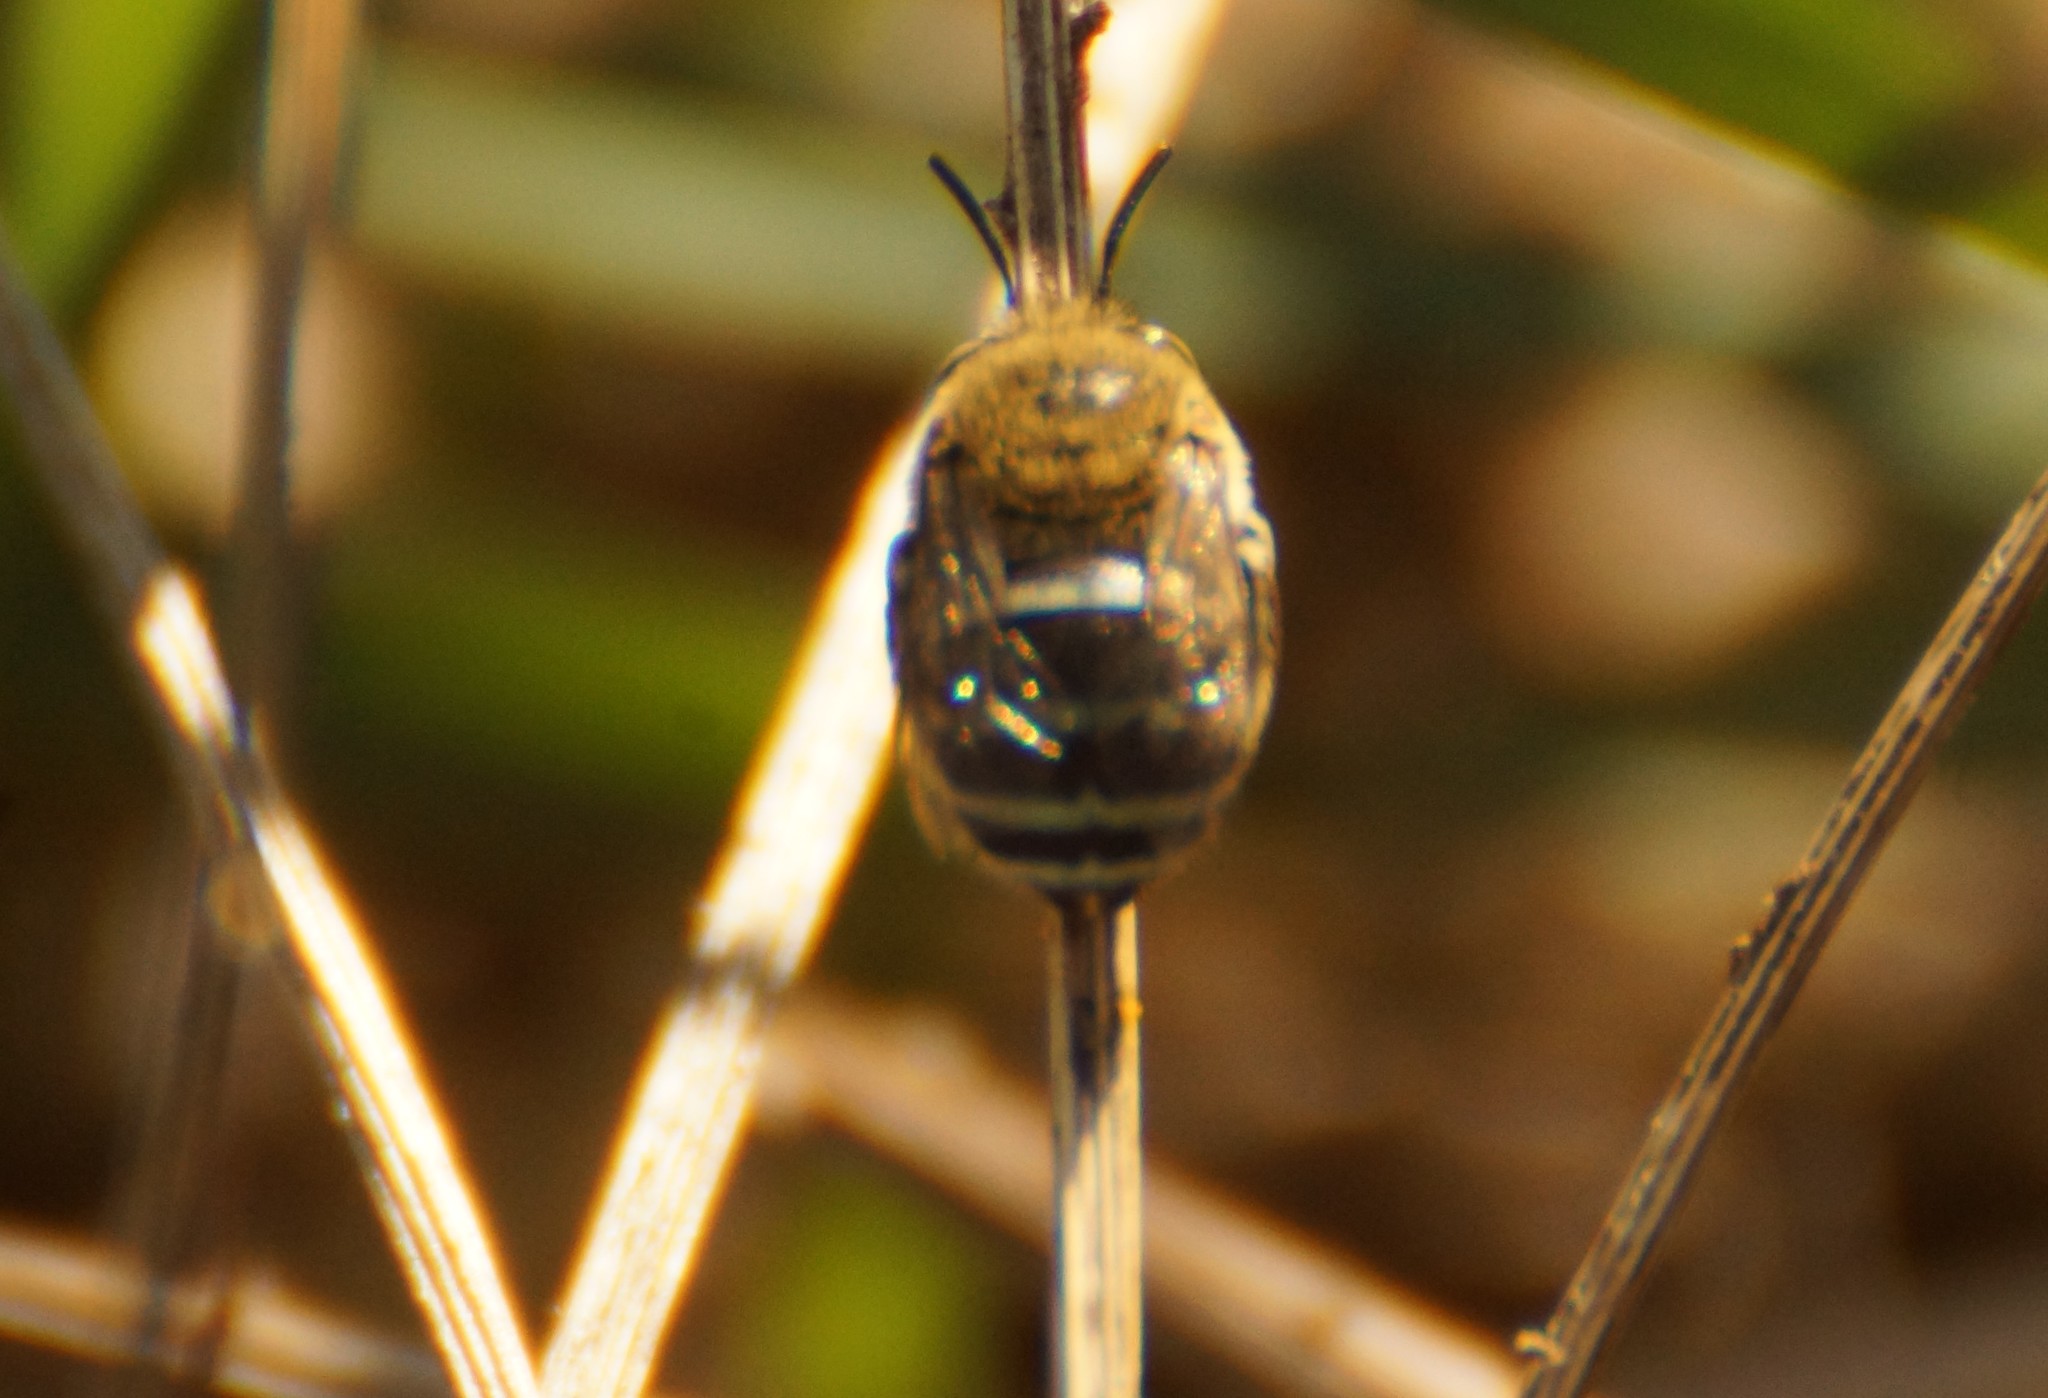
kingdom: Animalia
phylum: Arthropoda
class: Insecta
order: Hymenoptera
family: Apidae
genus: Amegilla
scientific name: Amegilla
